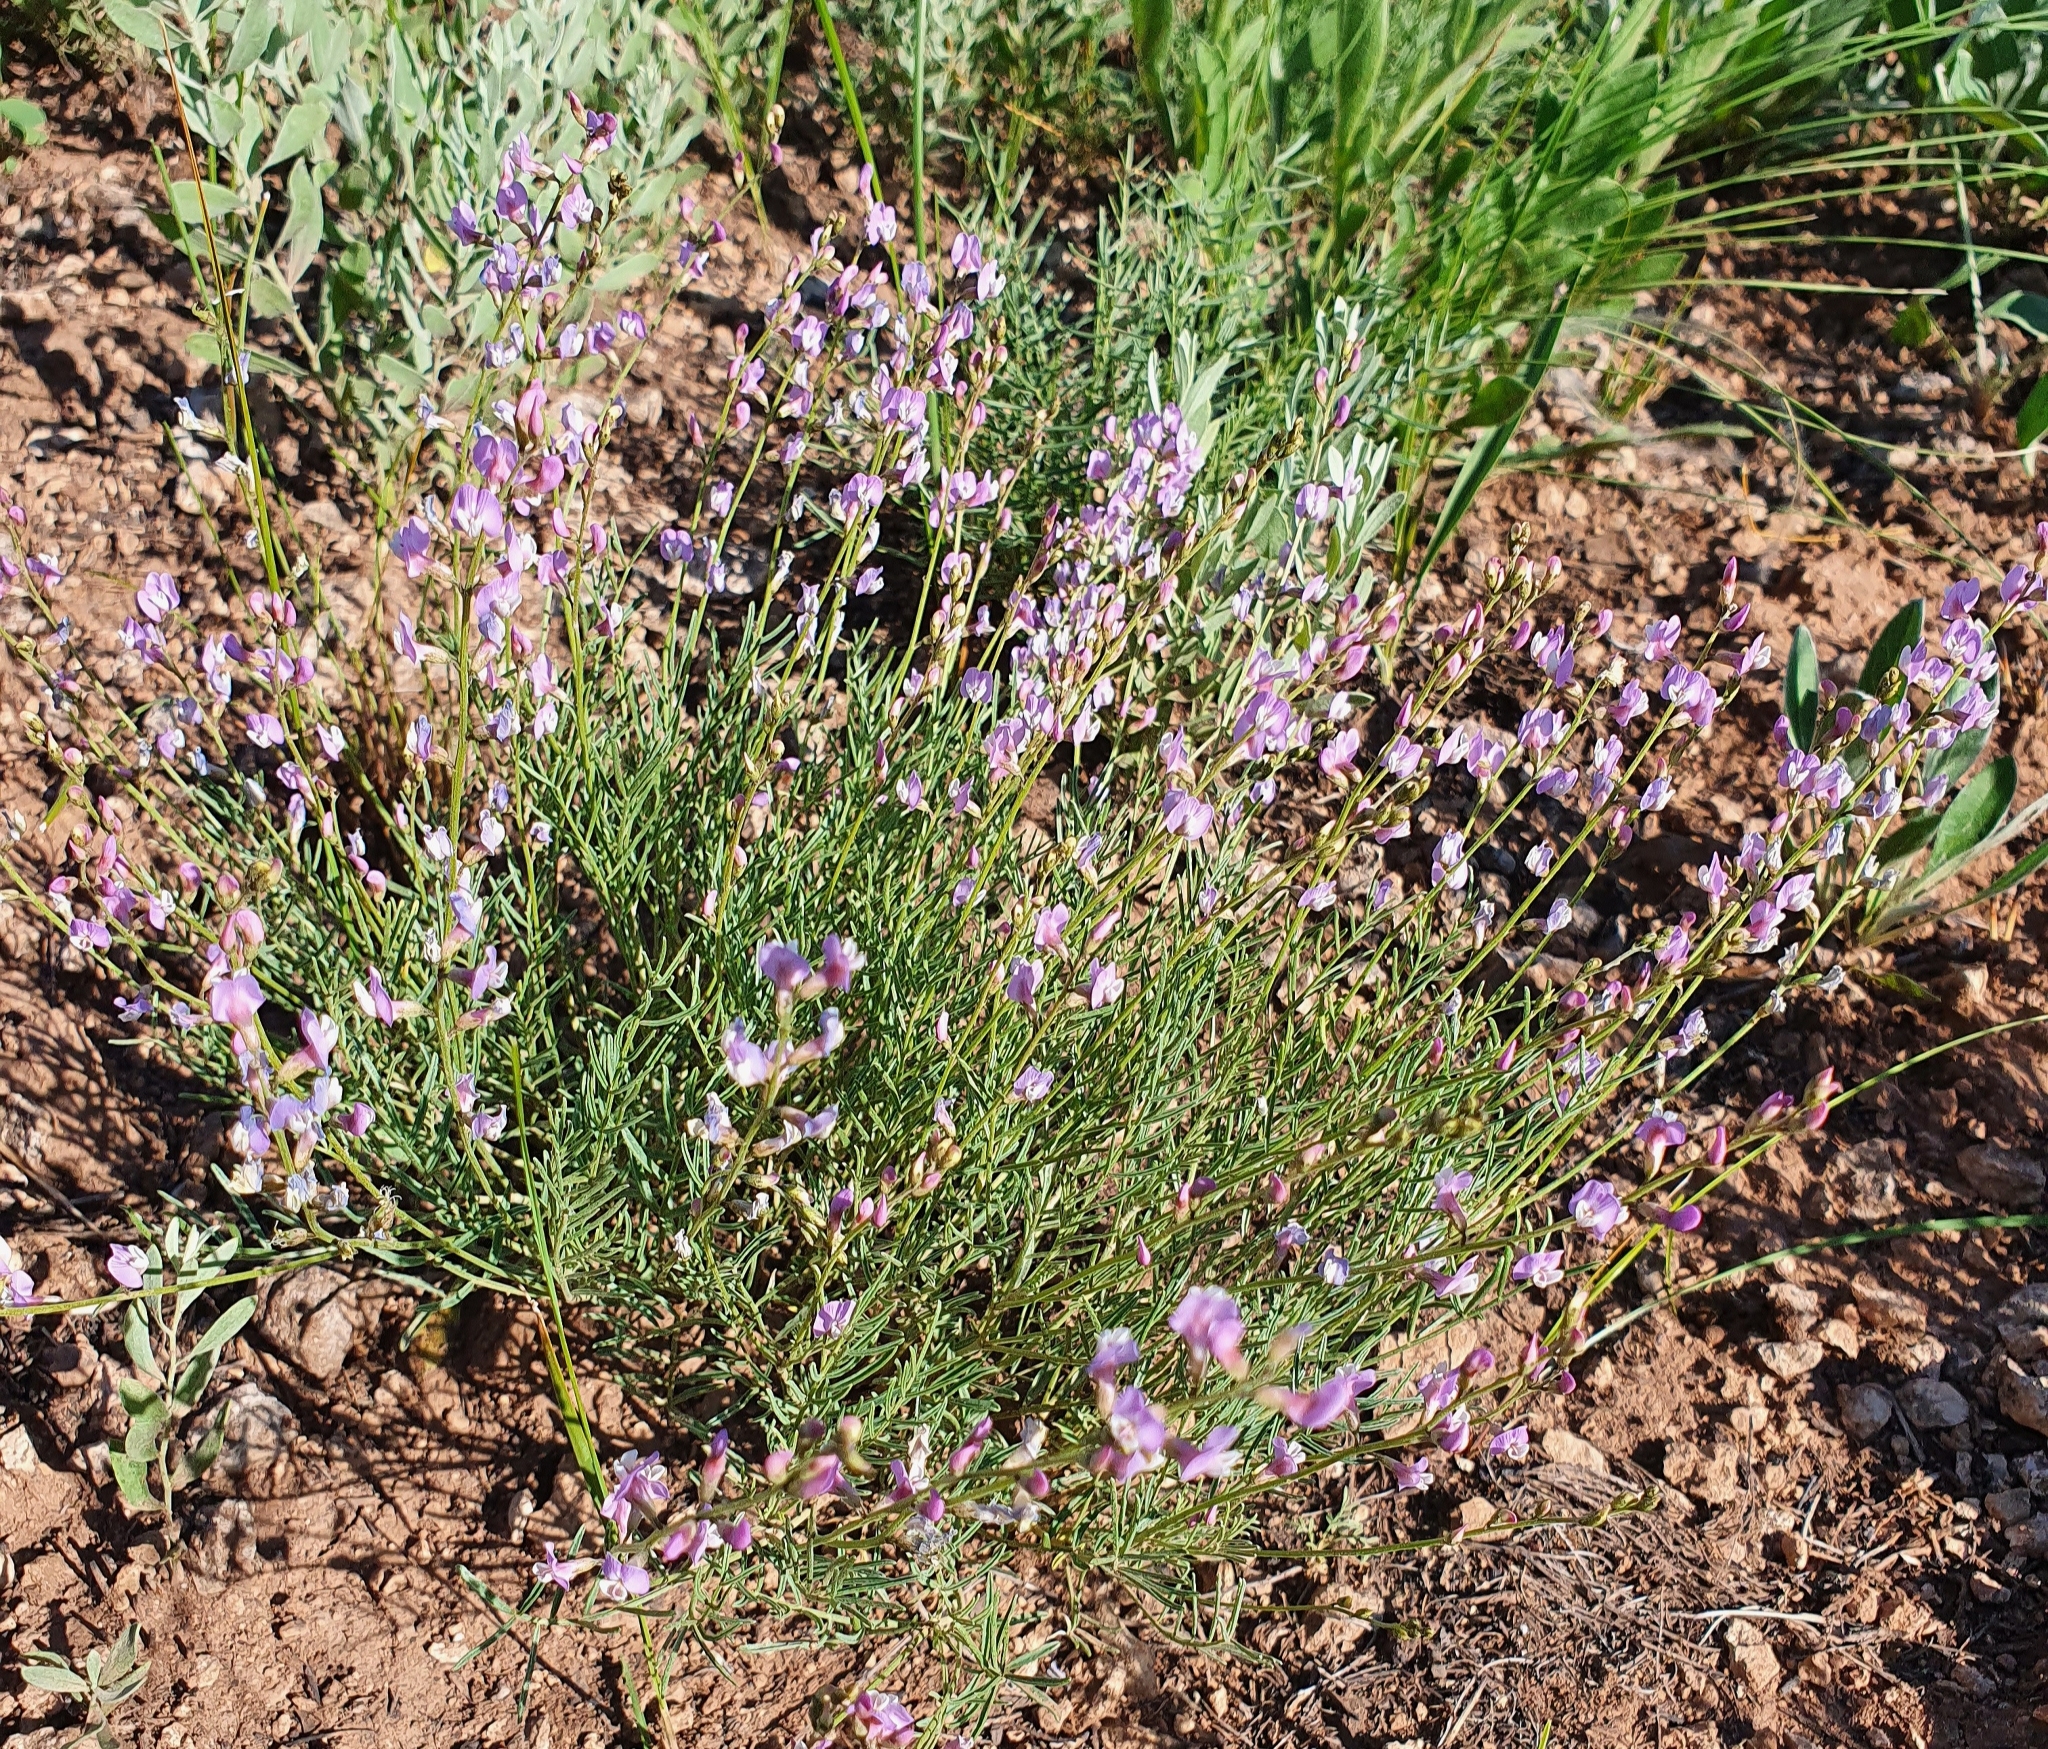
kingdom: Plantae
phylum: Tracheophyta
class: Magnoliopsida
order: Fabales
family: Fabaceae
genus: Astragalus
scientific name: Astragalus
